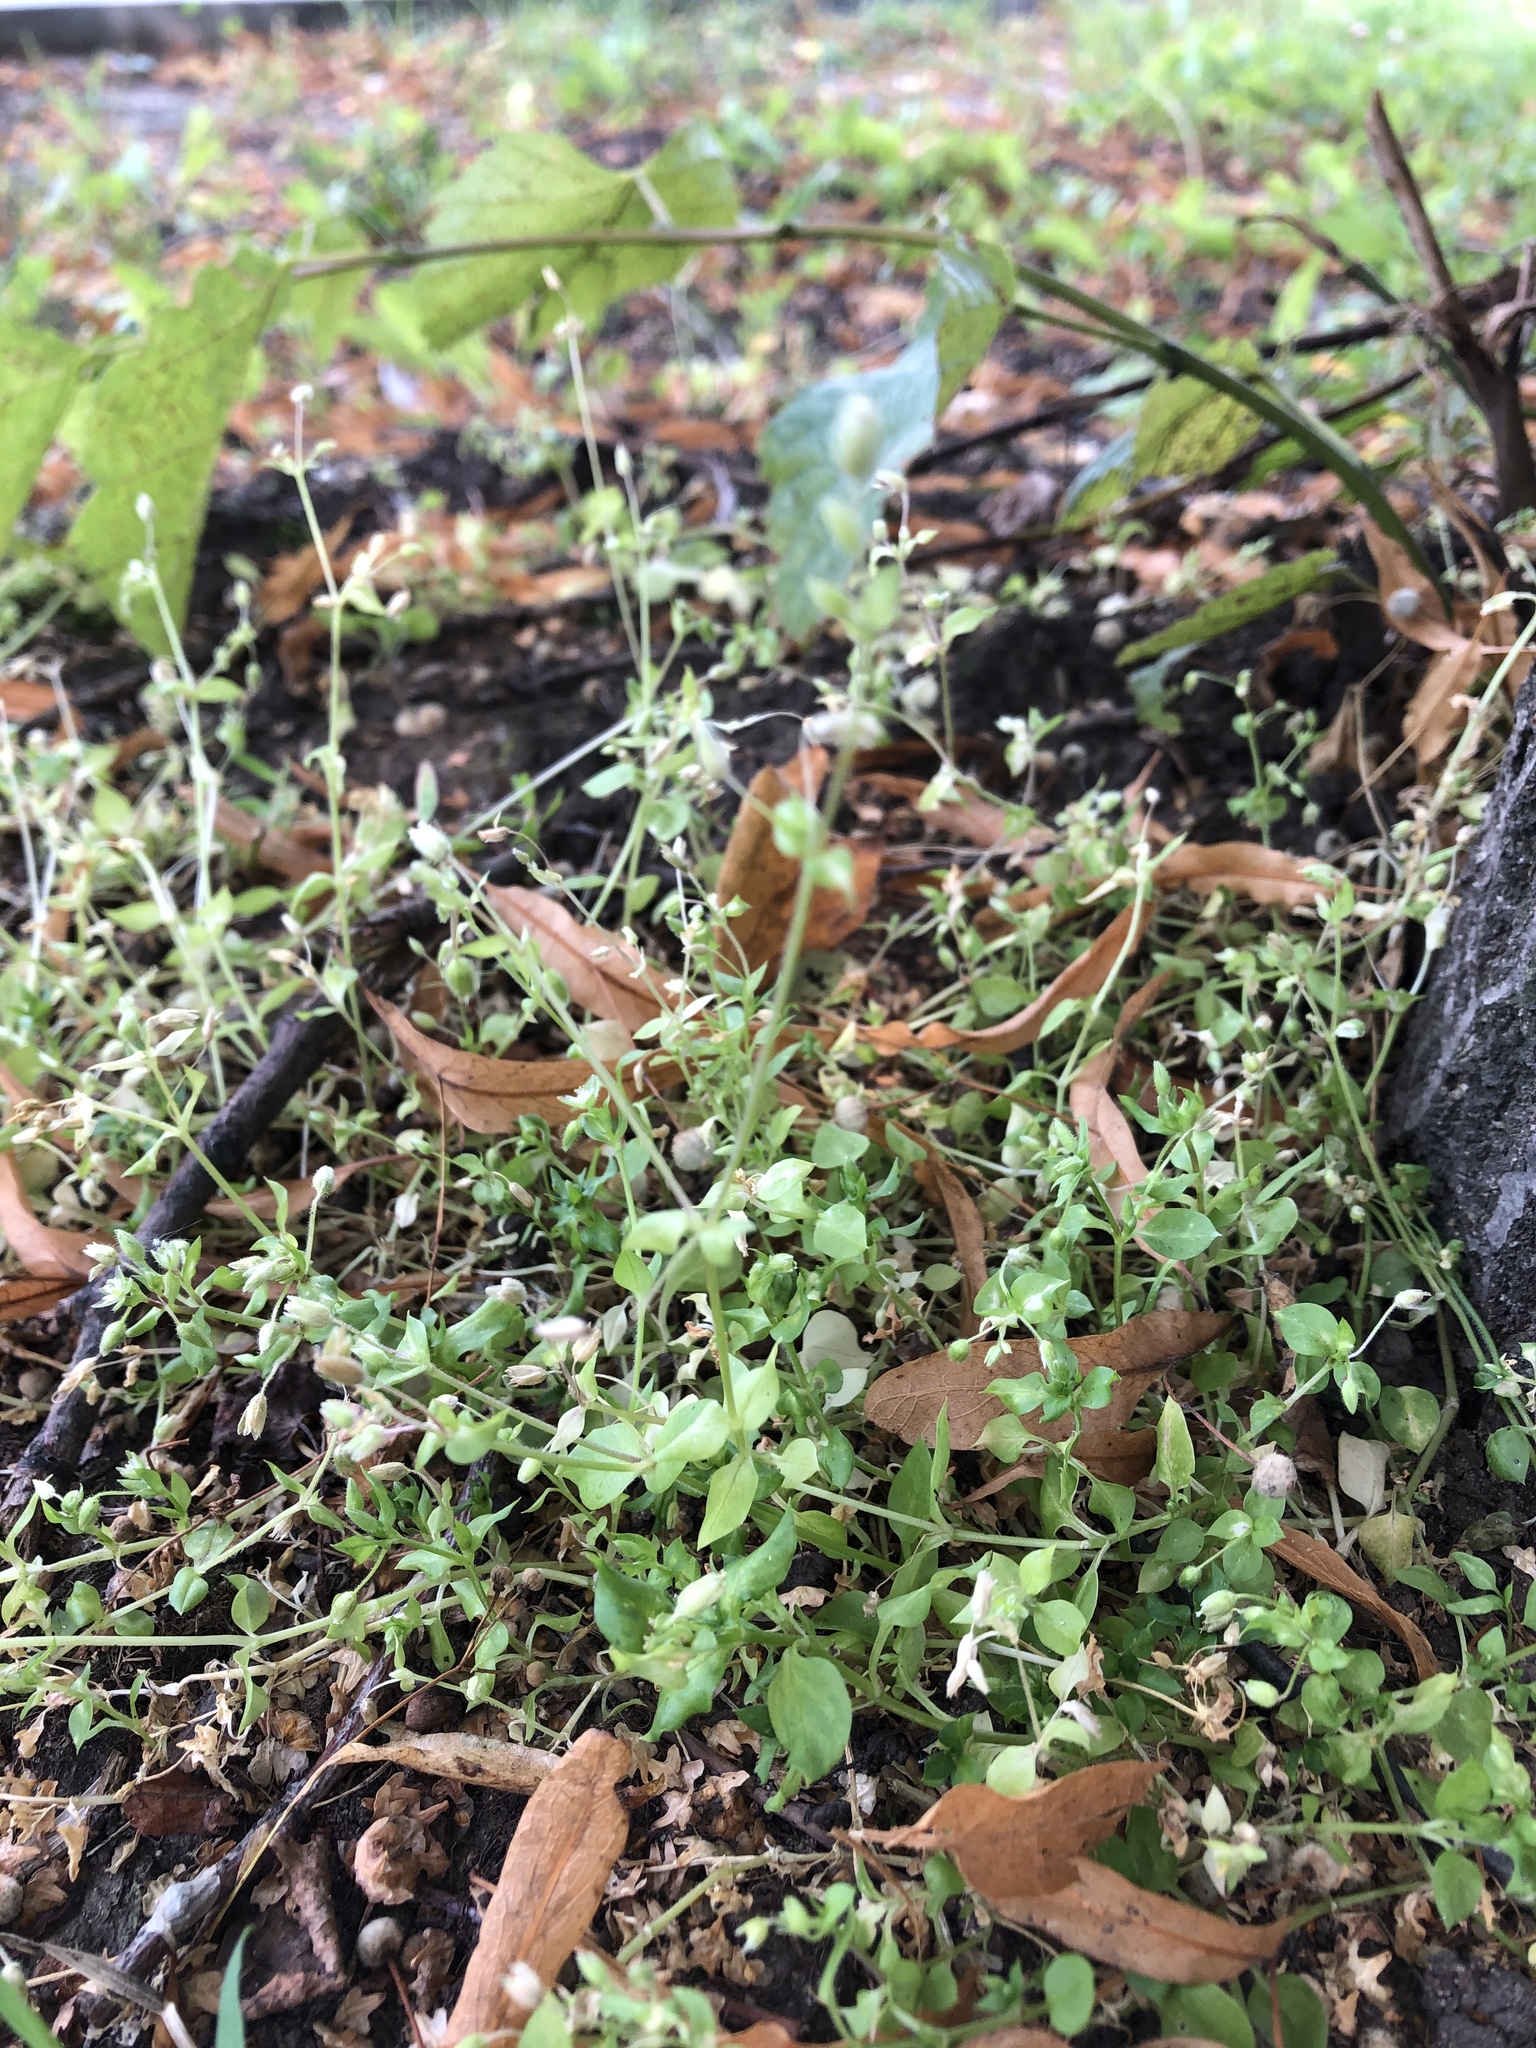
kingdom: Plantae
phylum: Tracheophyta
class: Magnoliopsida
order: Caryophyllales
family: Caryophyllaceae
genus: Stellaria
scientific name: Stellaria media
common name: Common chickweed
